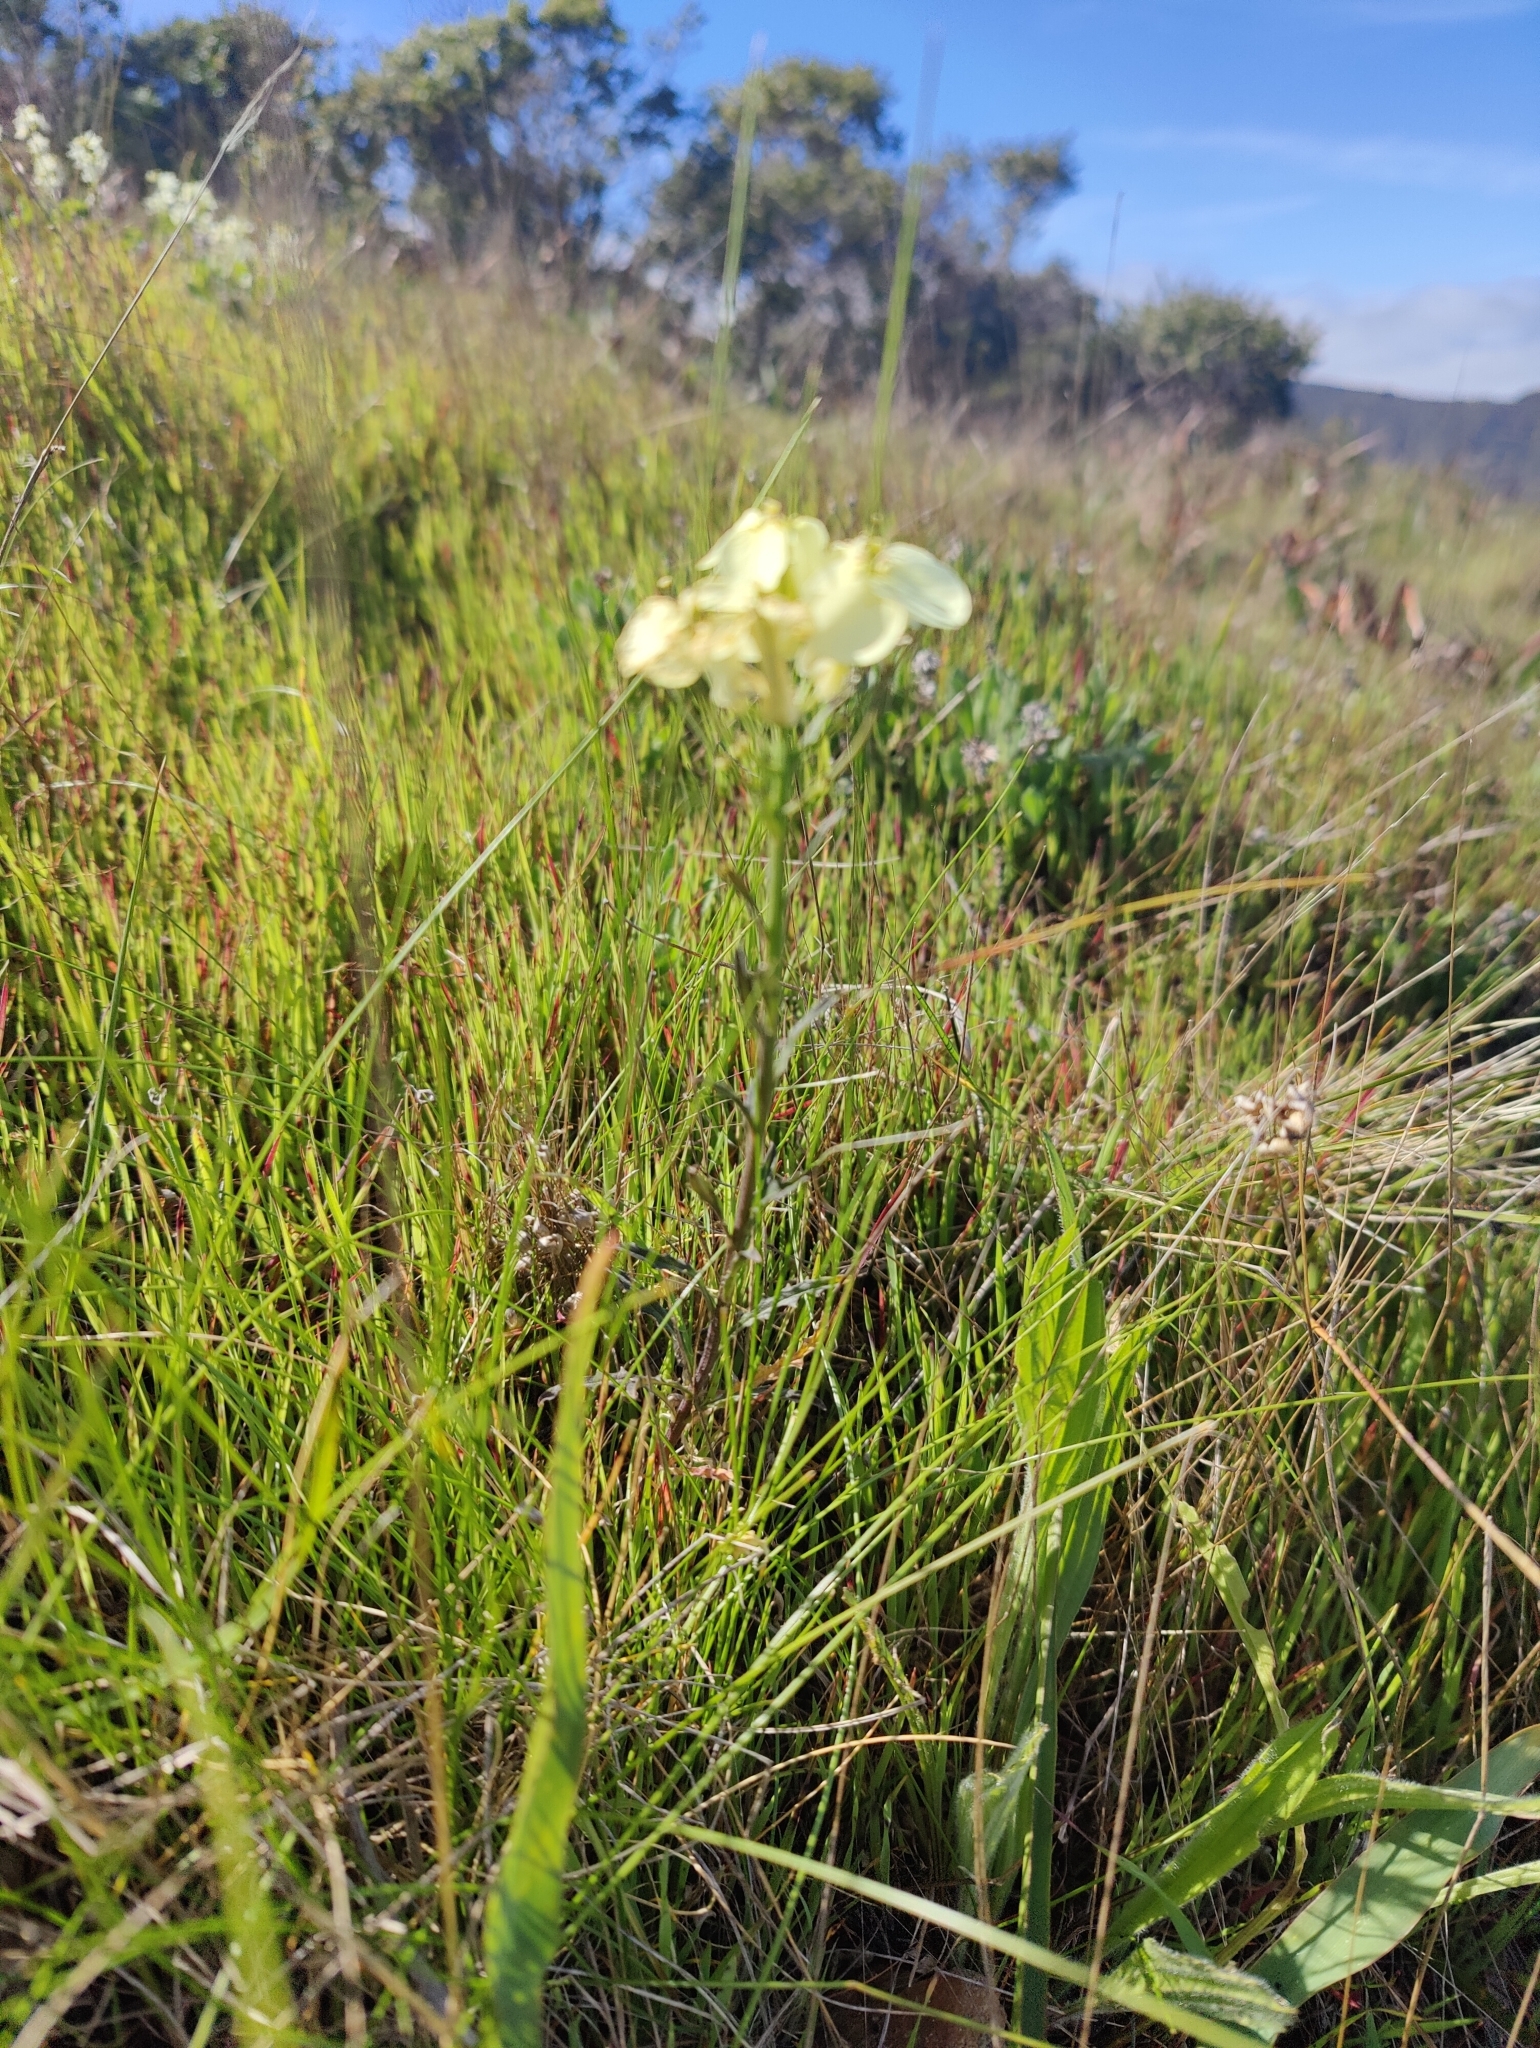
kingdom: Plantae
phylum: Tracheophyta
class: Magnoliopsida
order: Brassicales
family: Brassicaceae
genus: Erysimum
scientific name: Erysimum franciscanum
